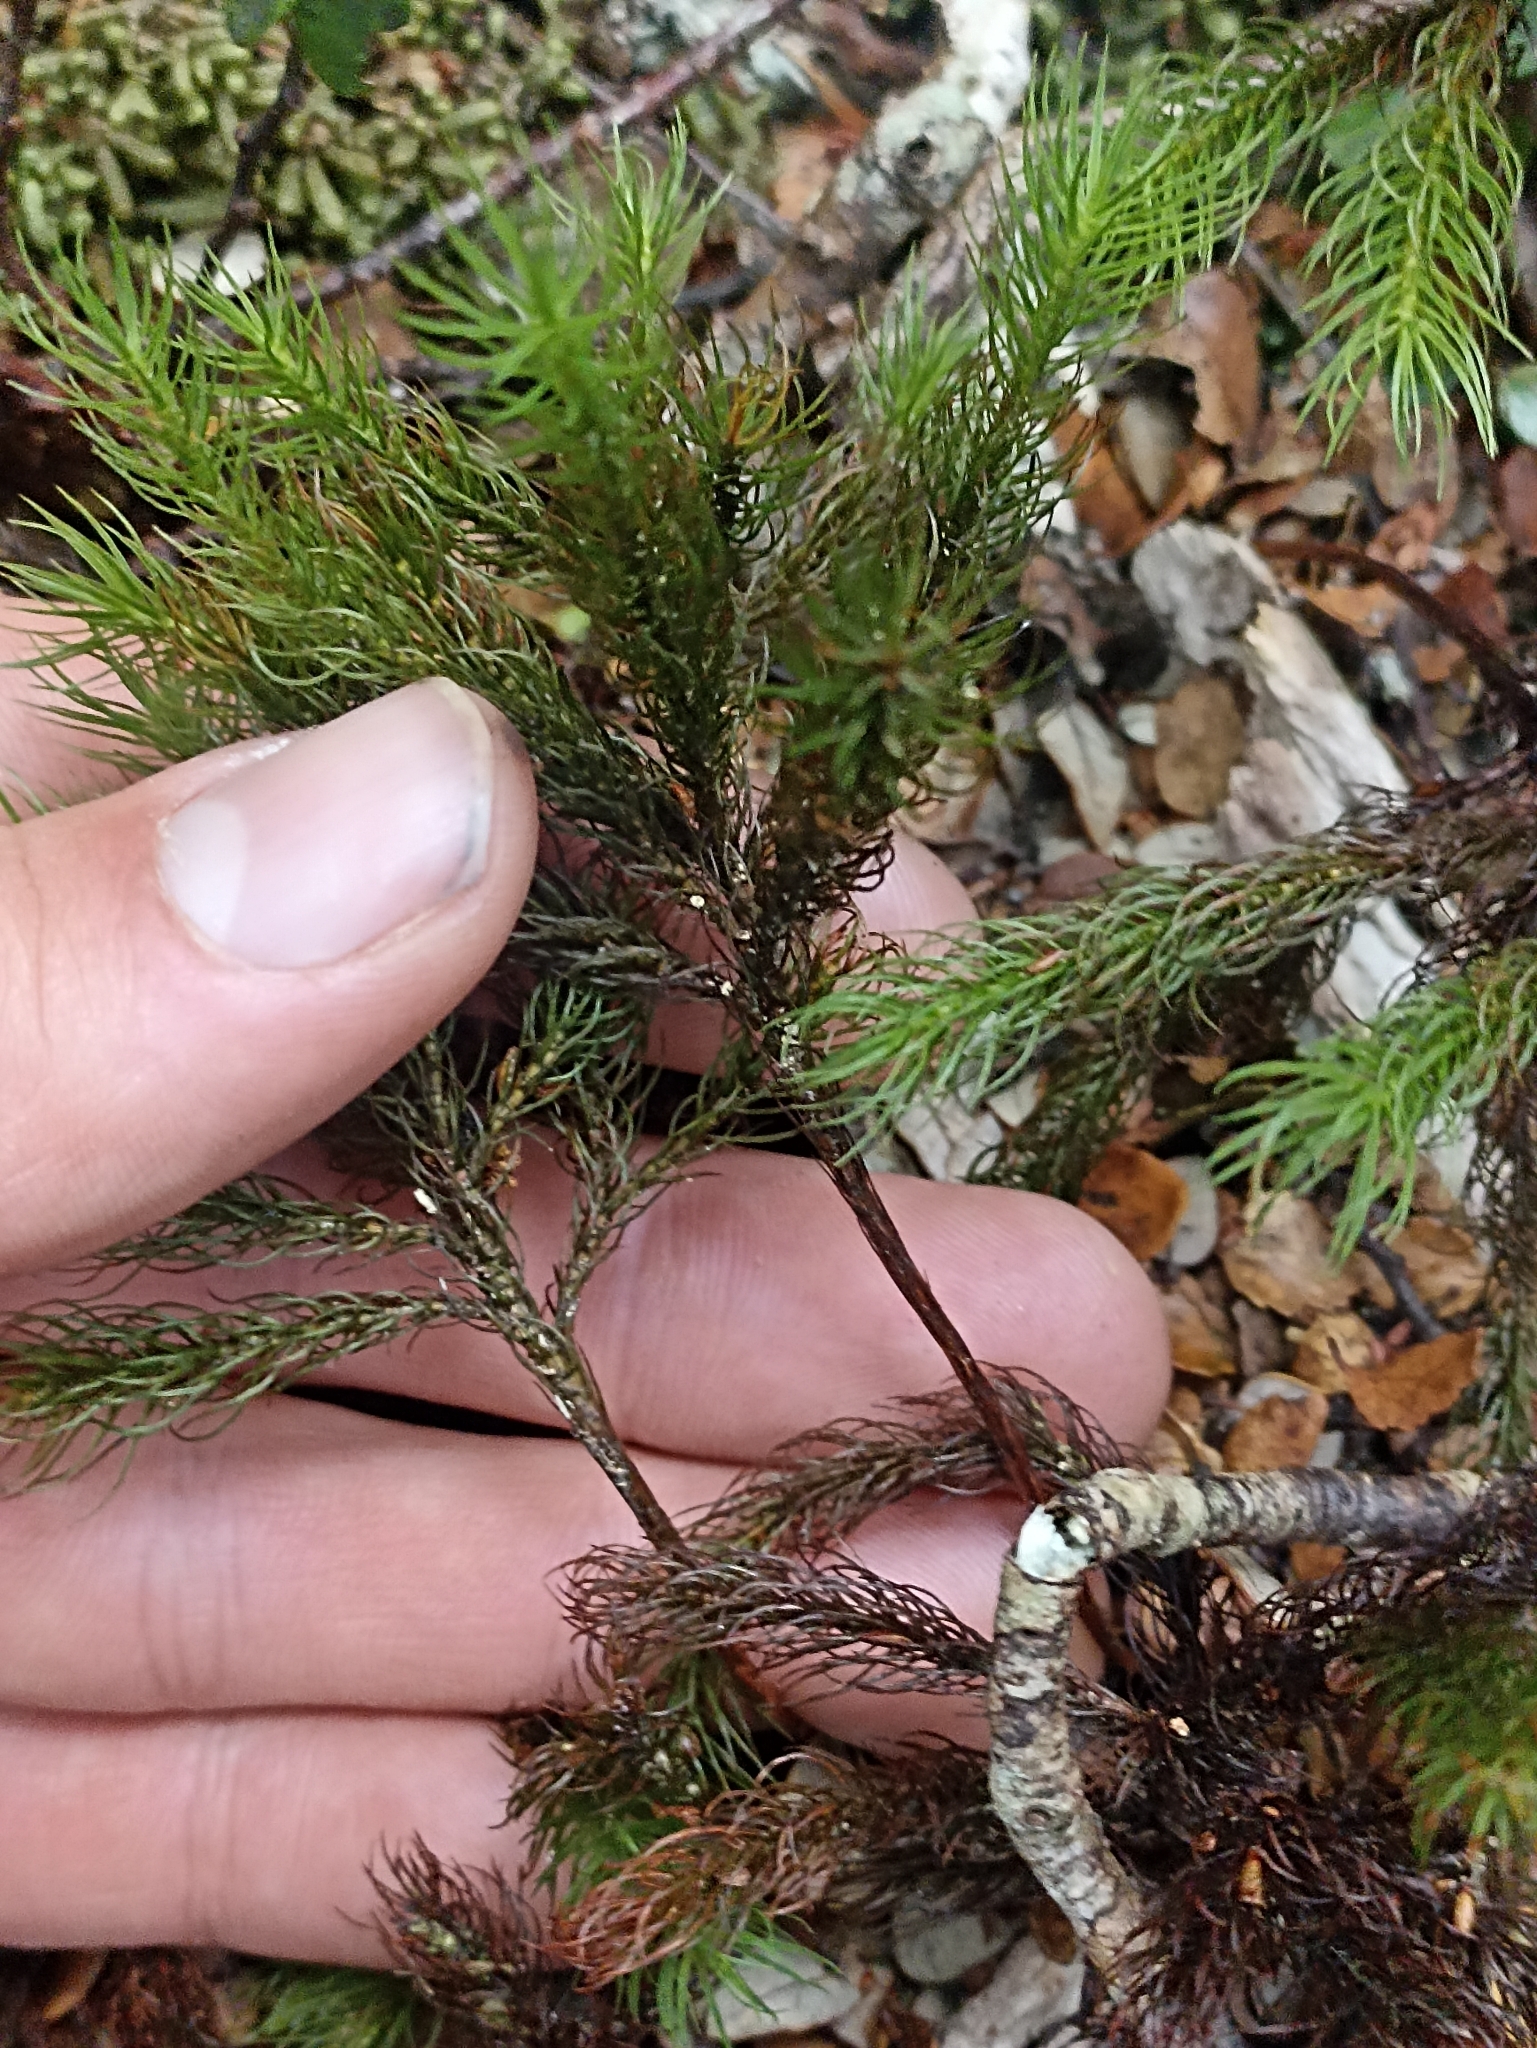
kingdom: Plantae
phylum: Bryophyta
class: Polytrichopsida
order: Polytrichales
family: Polytrichaceae
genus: Dendroligotrichum
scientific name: Dendroligotrichum tongariroense
